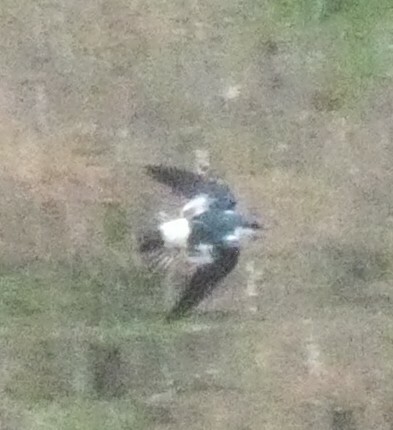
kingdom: Animalia
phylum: Chordata
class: Aves
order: Passeriformes
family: Hirundinidae
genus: Tachycineta
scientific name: Tachycineta albiventer
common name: White-winged swallow
